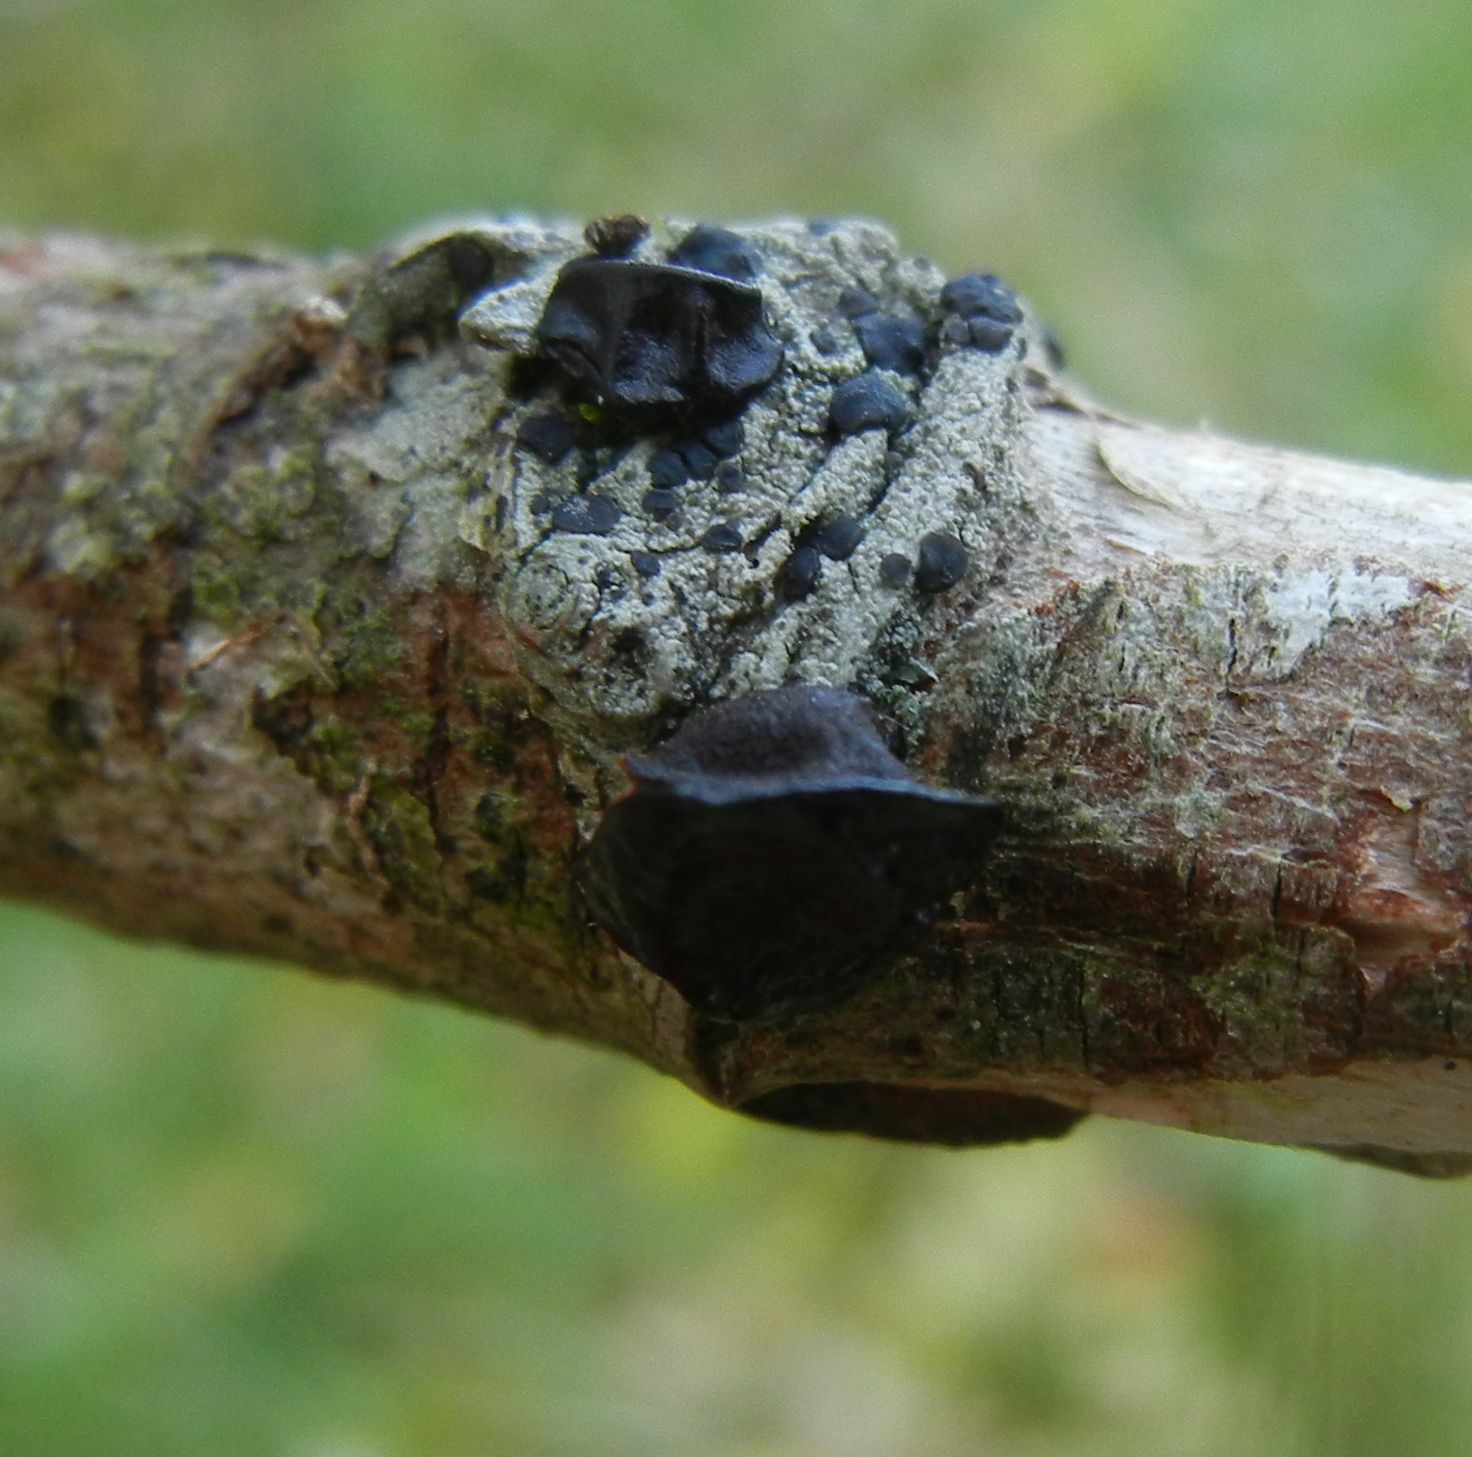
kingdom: Fungi
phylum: Basidiomycota
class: Agaricomycetes
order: Auriculariales
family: Auriculariaceae
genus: Exidia
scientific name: Exidia glandulosa
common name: Witches' butter
